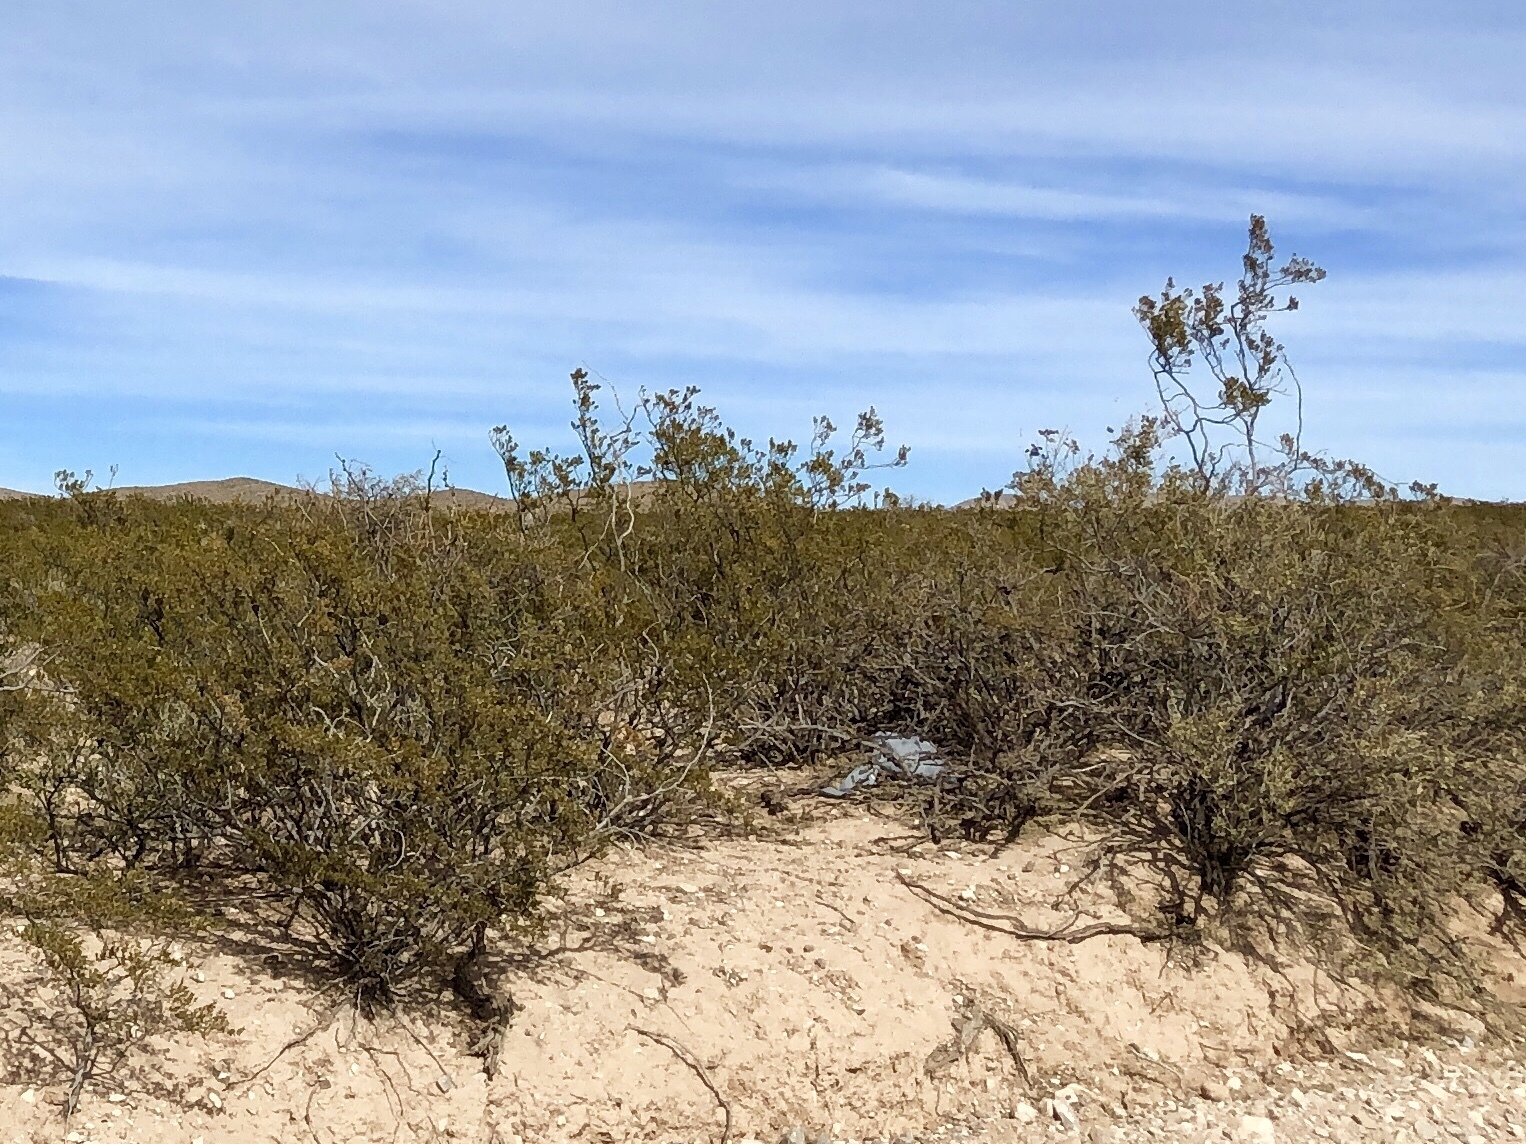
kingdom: Plantae
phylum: Tracheophyta
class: Magnoliopsida
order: Zygophyllales
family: Zygophyllaceae
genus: Larrea
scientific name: Larrea tridentata
